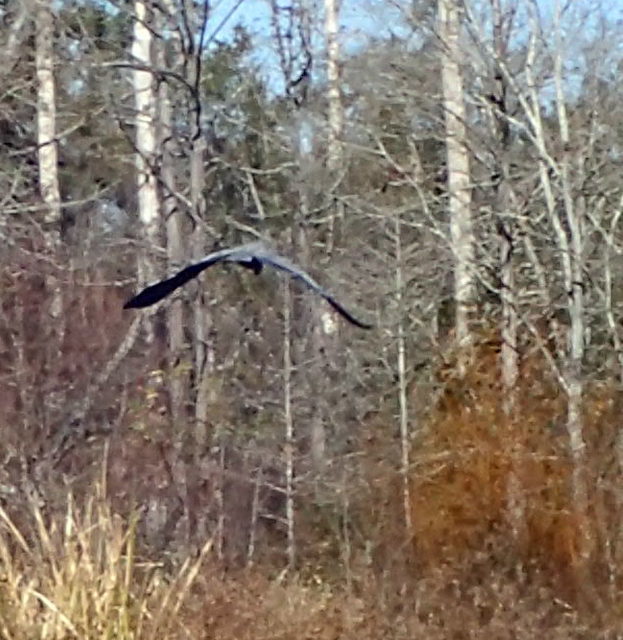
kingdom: Animalia
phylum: Chordata
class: Aves
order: Pelecaniformes
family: Ardeidae
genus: Ardea
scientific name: Ardea herodias
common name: Great blue heron
